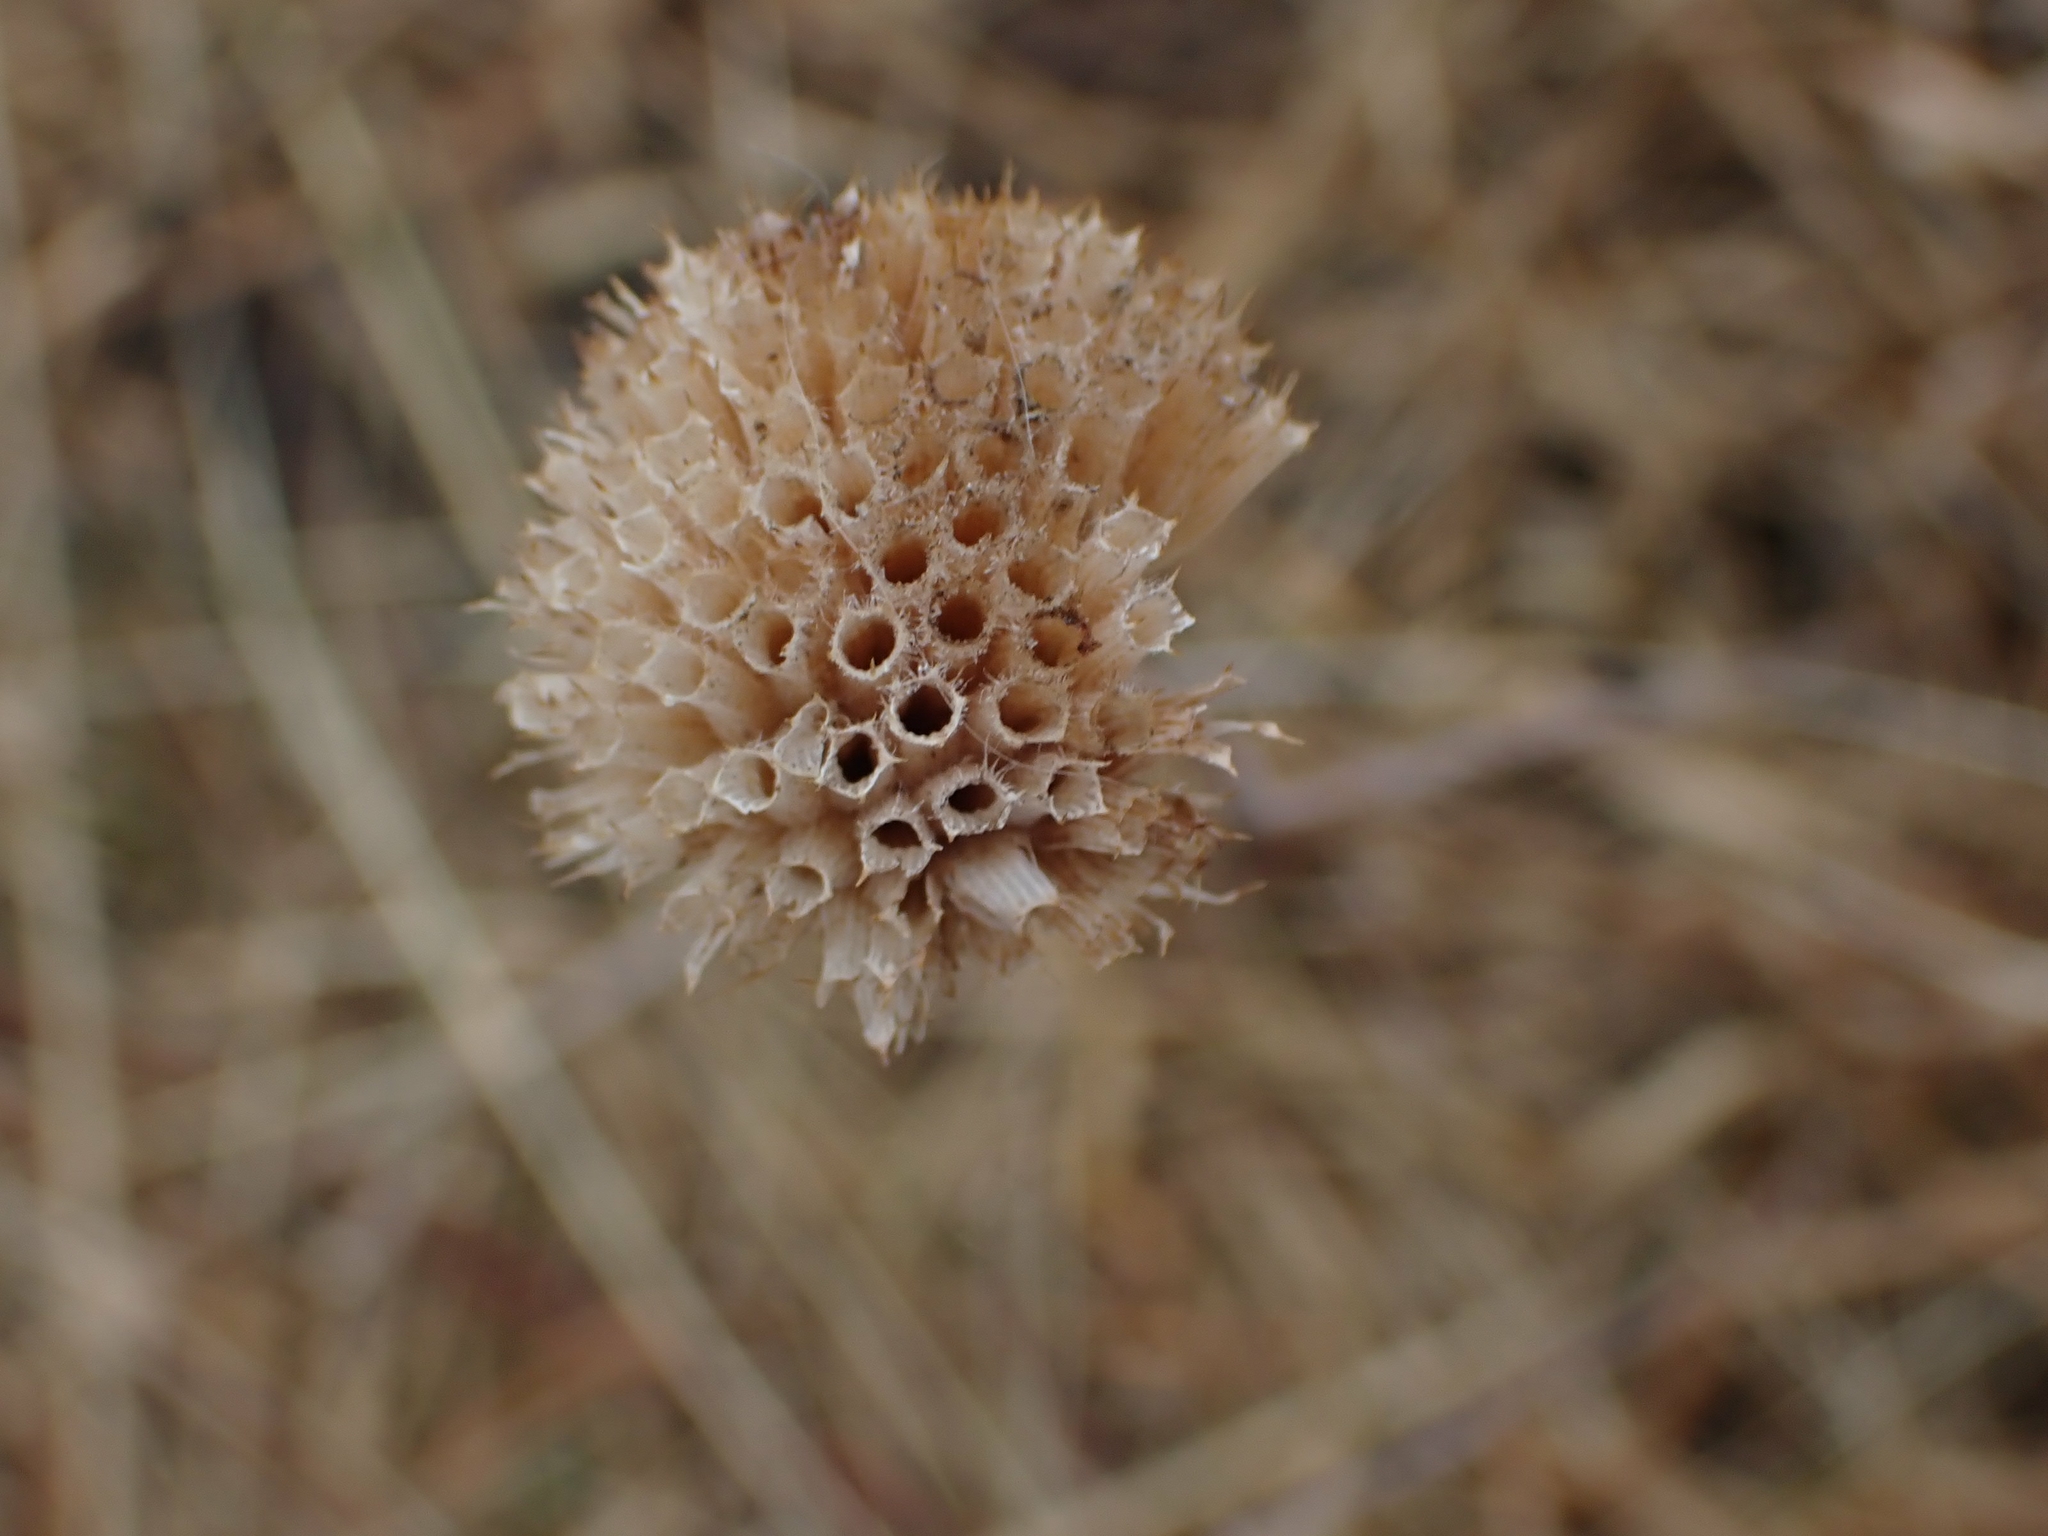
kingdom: Plantae
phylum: Tracheophyta
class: Magnoliopsida
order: Lamiales
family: Lamiaceae
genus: Monarda
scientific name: Monarda fistulosa
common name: Purple beebalm
